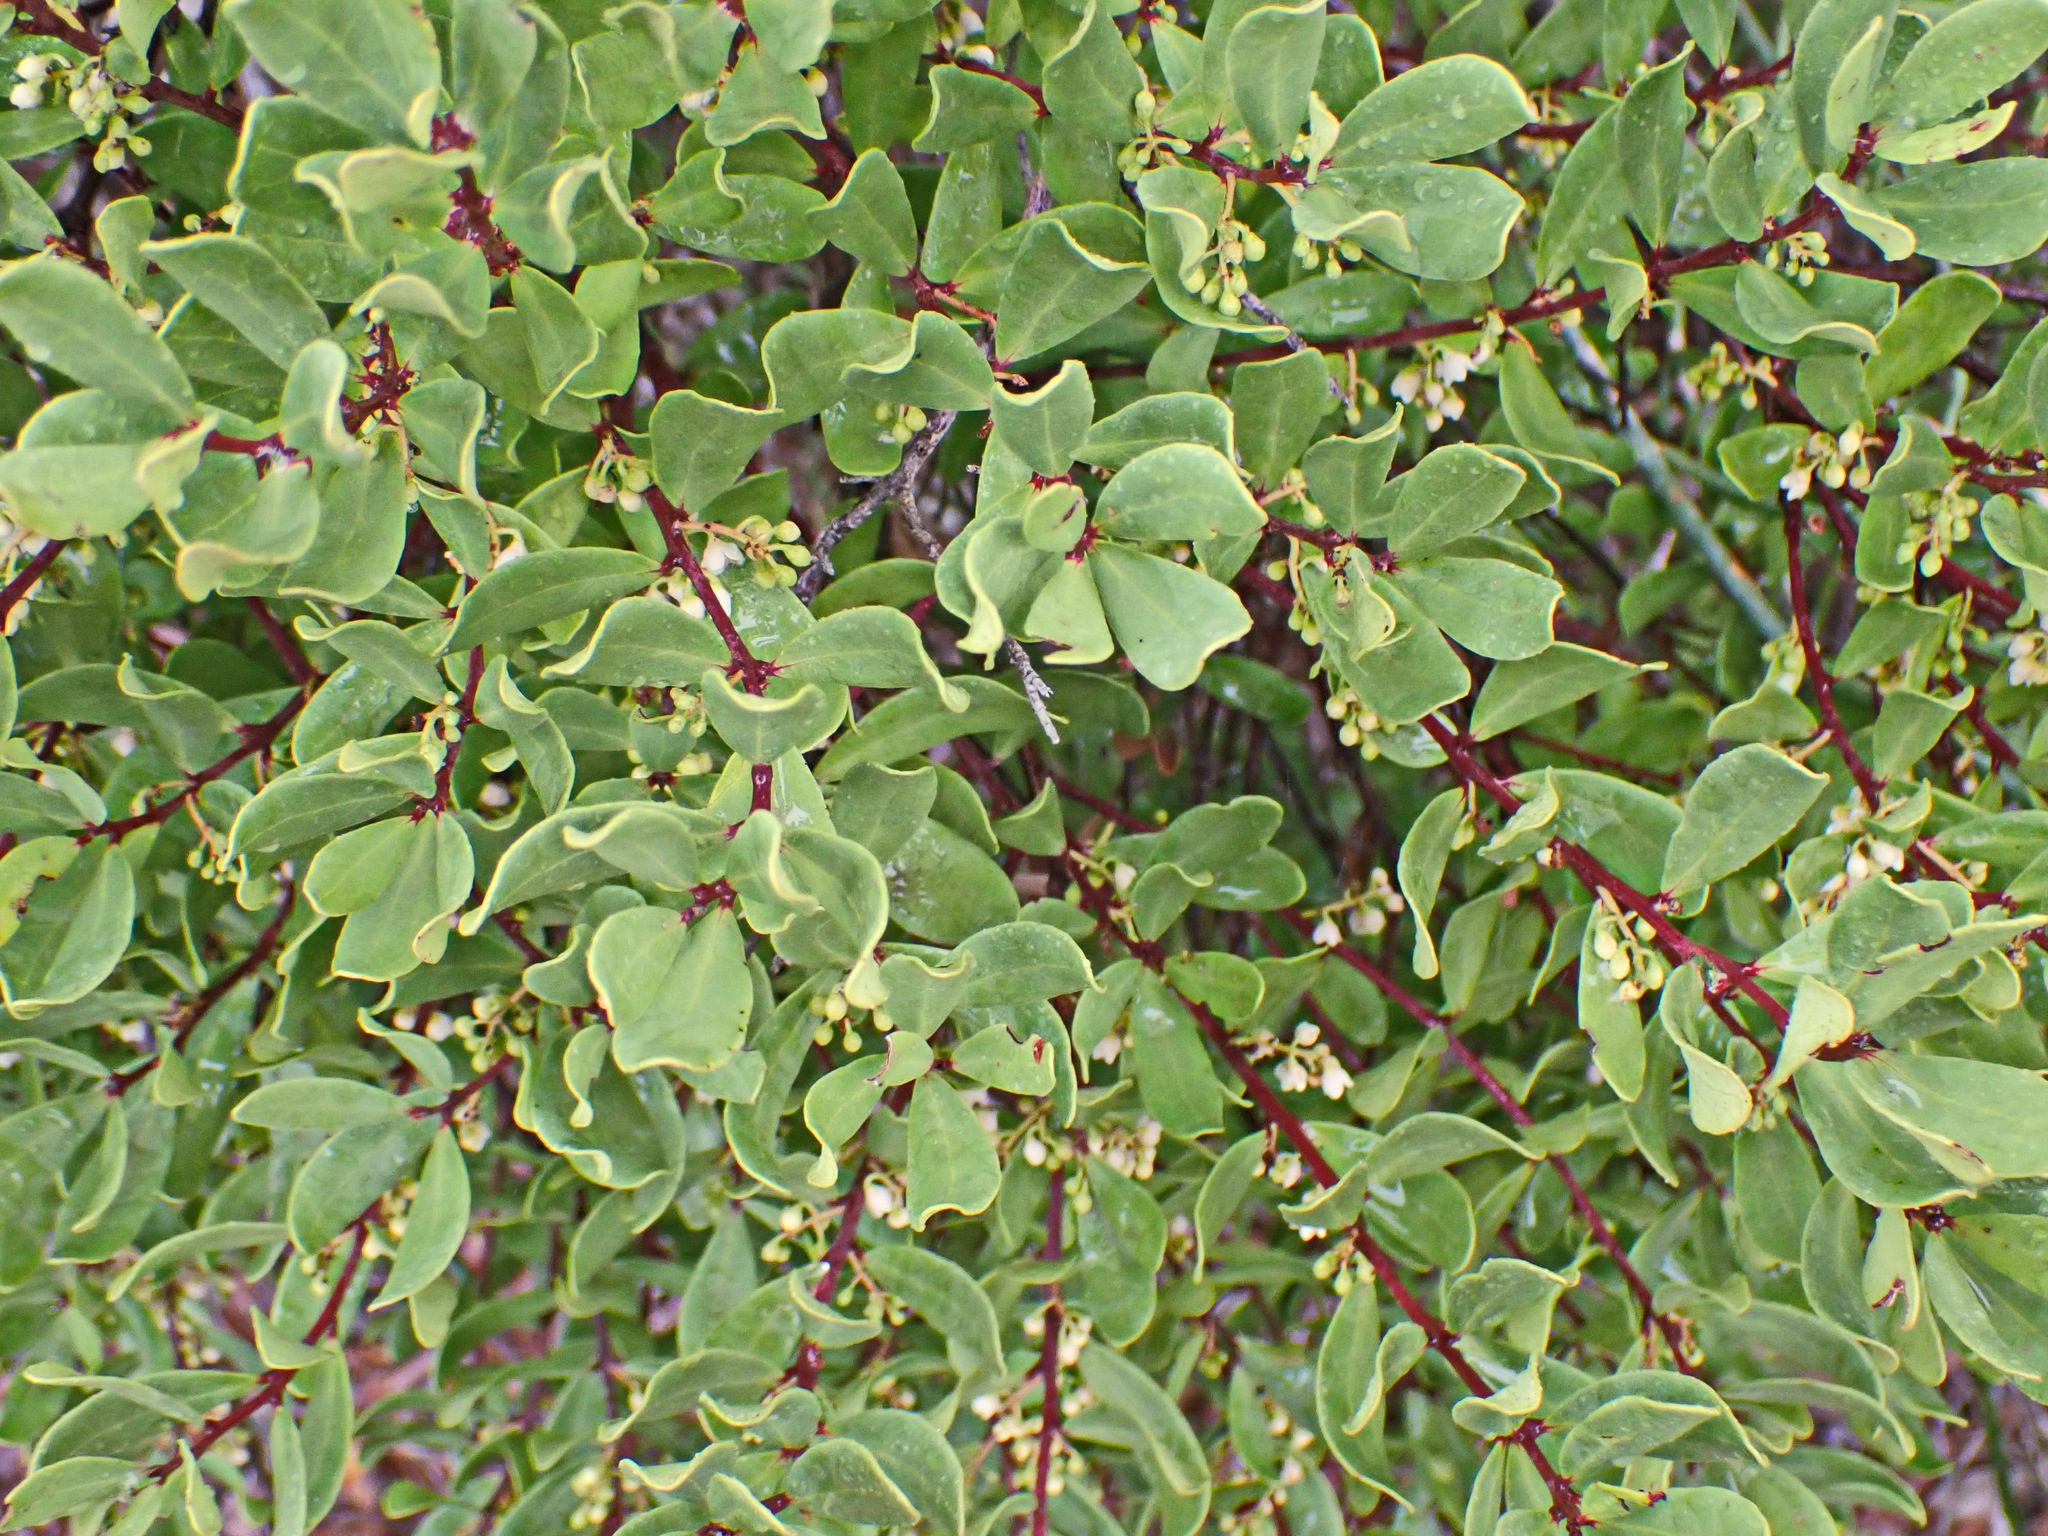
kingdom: Plantae
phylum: Tracheophyta
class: Magnoliopsida
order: Ericales
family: Ebenaceae
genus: Euclea
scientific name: Euclea racemosa
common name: Dune guarri
